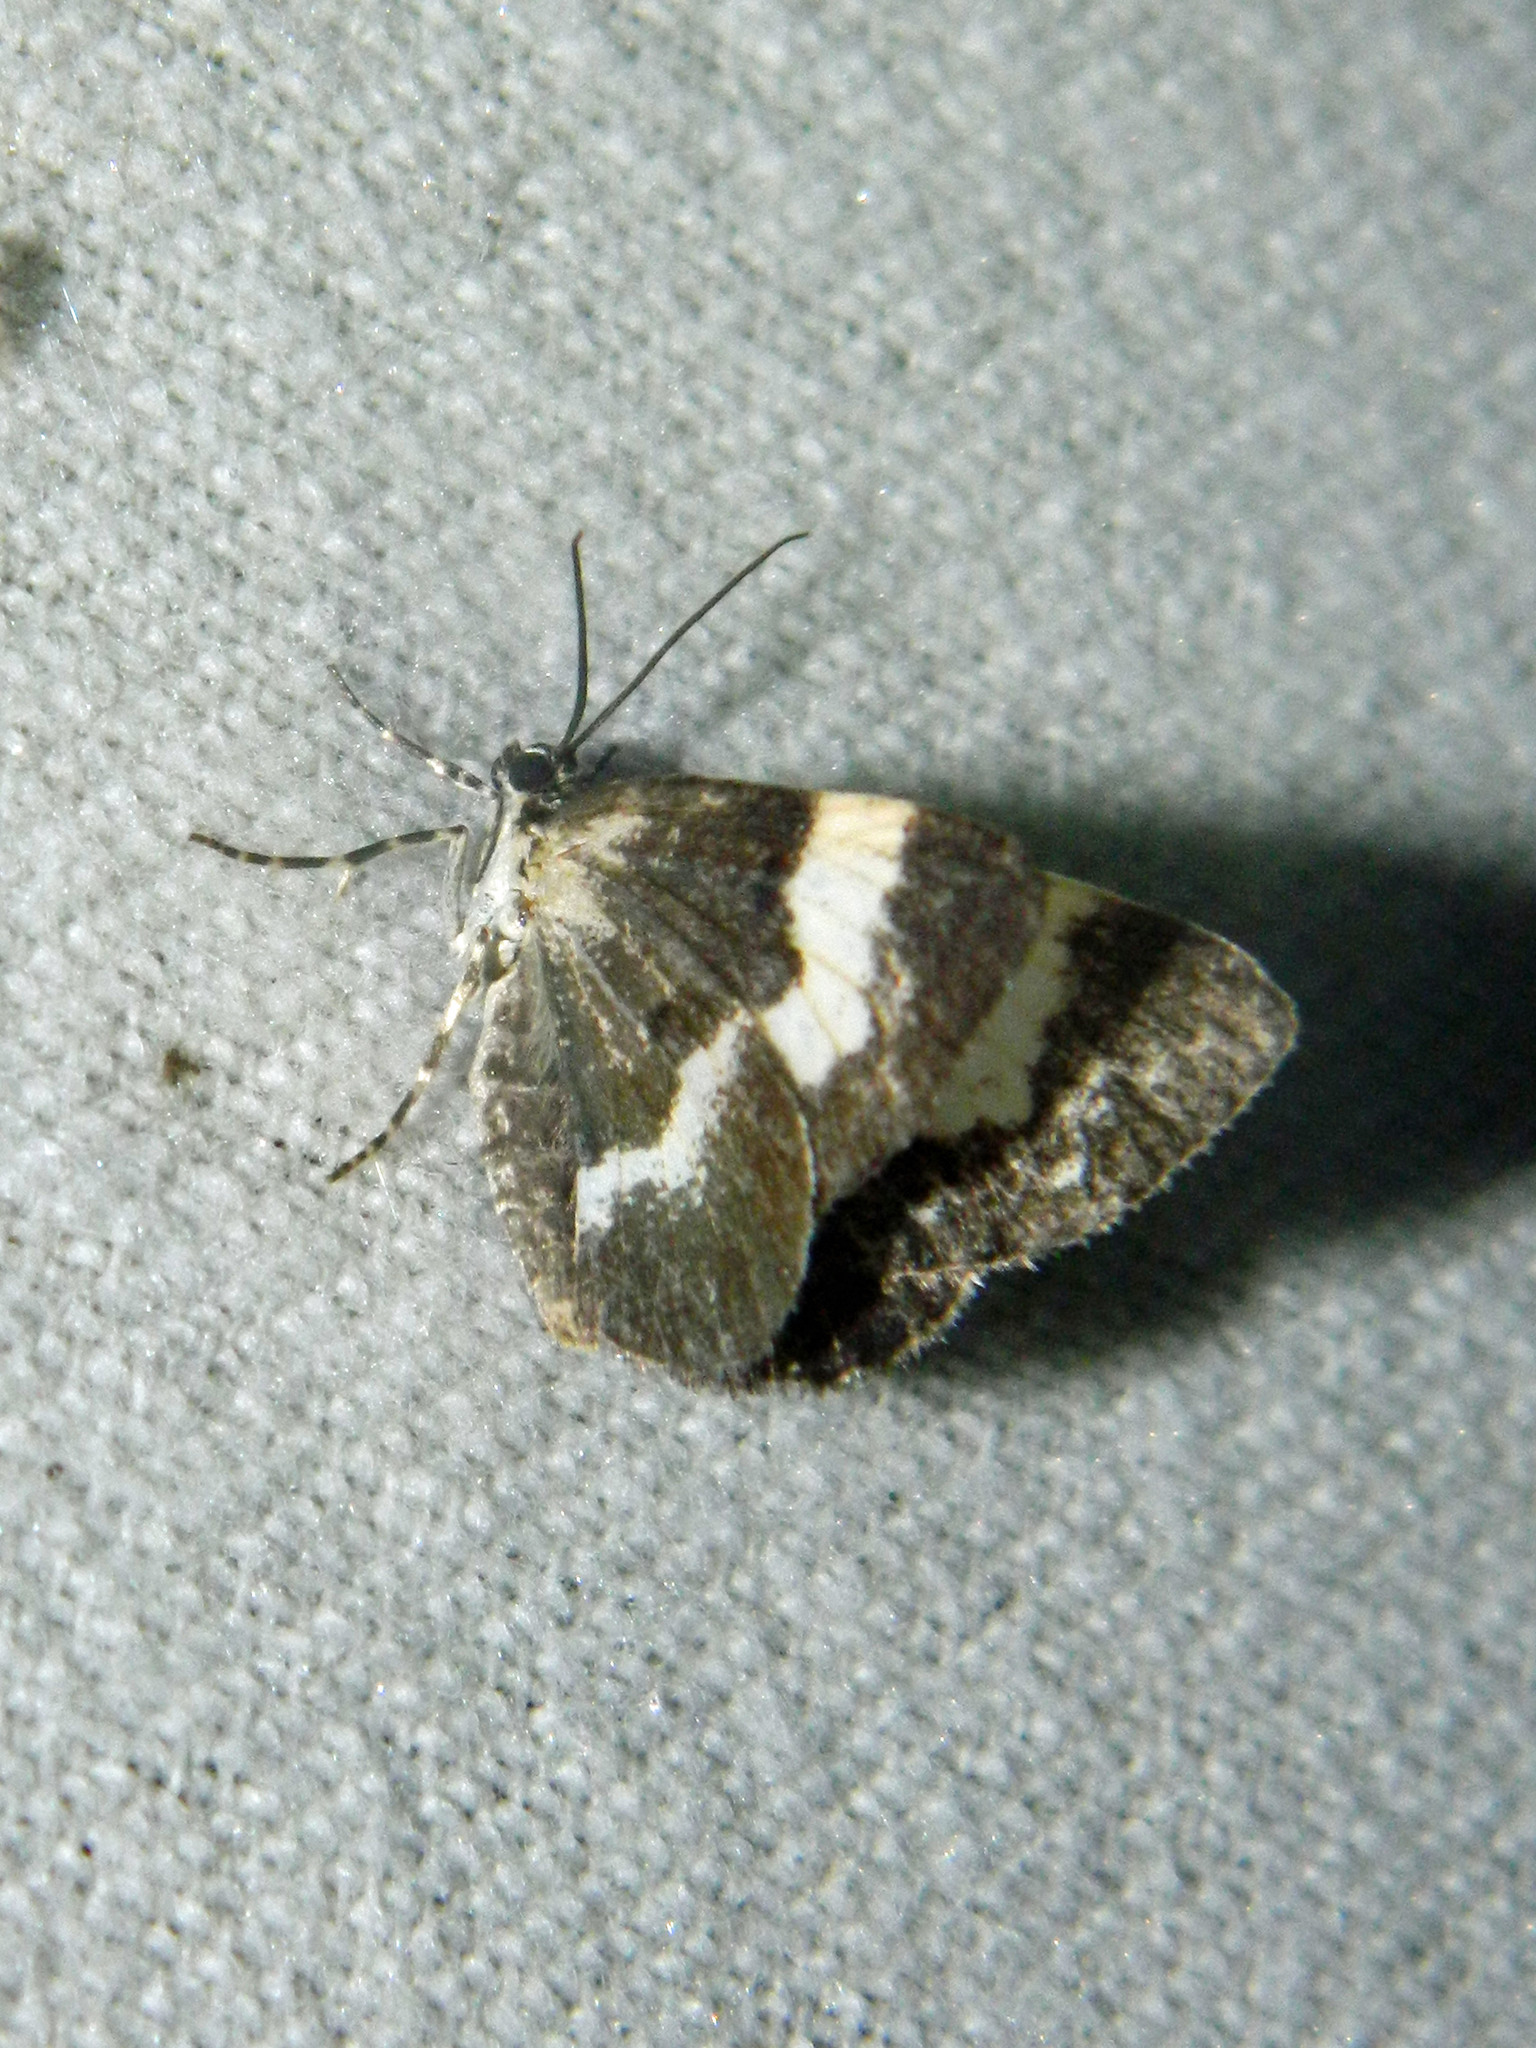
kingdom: Animalia
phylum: Arthropoda
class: Insecta
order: Lepidoptera
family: Geometridae
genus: Spargania
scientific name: Spargania luctuata
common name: White-banded carpet
